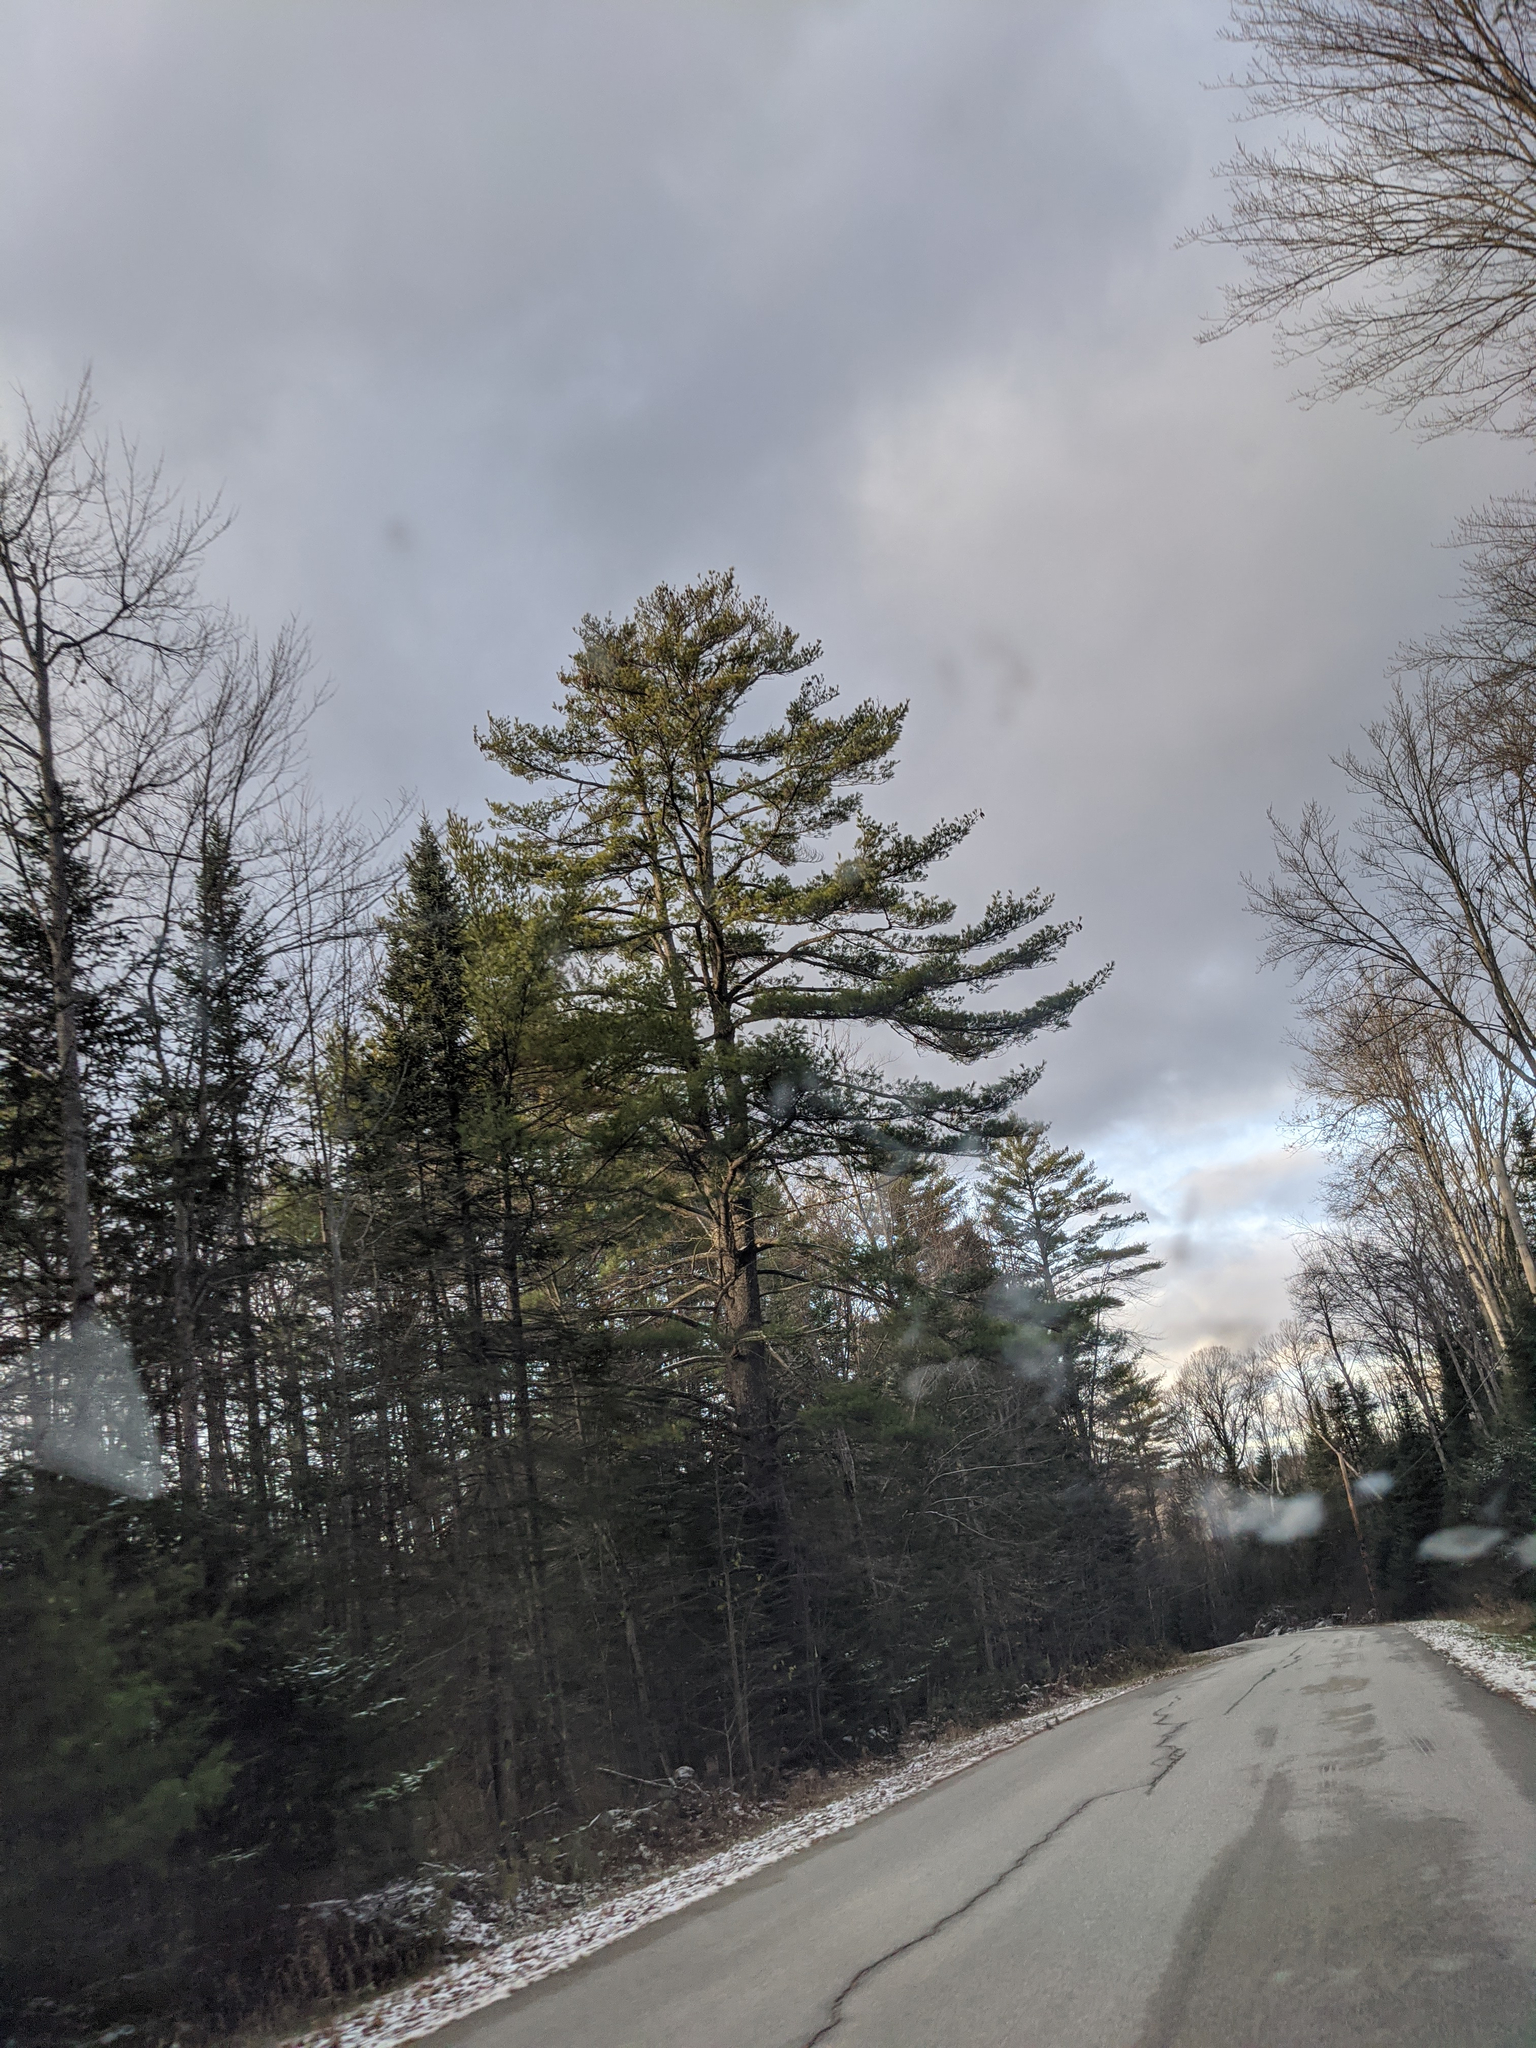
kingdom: Plantae
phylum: Tracheophyta
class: Pinopsida
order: Pinales
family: Pinaceae
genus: Pinus
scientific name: Pinus strobus
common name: Weymouth pine
